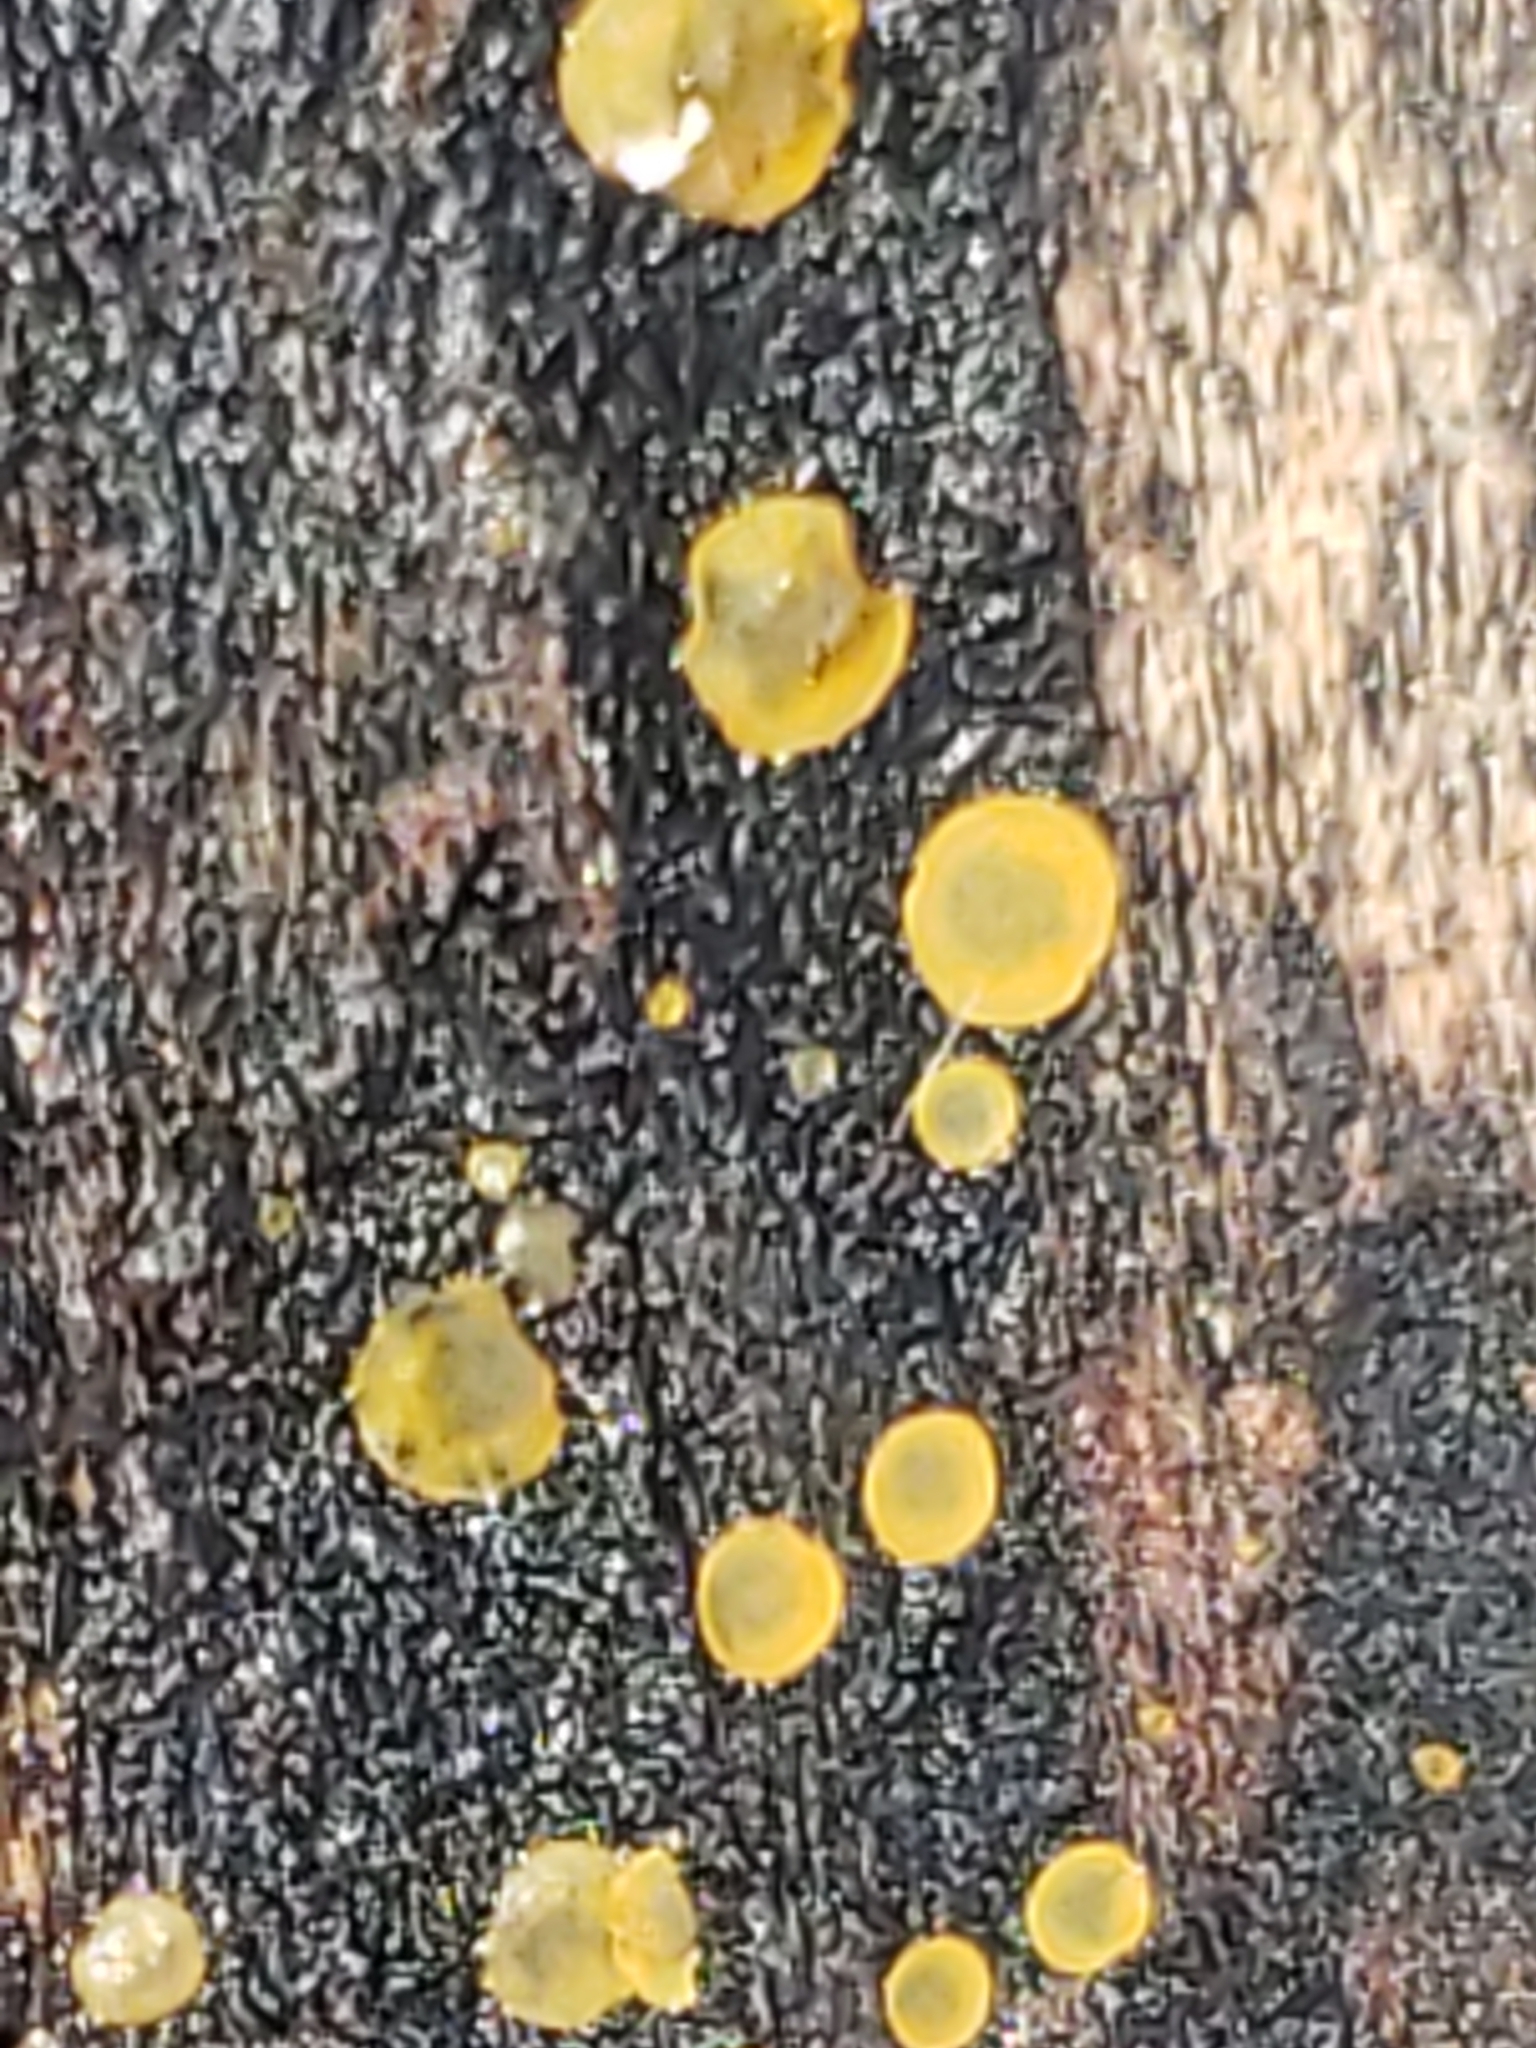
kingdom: Fungi
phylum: Ascomycota
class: Orbiliomycetes
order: Orbiliales
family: Orbiliaceae
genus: Orbilia
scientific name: Orbilia
